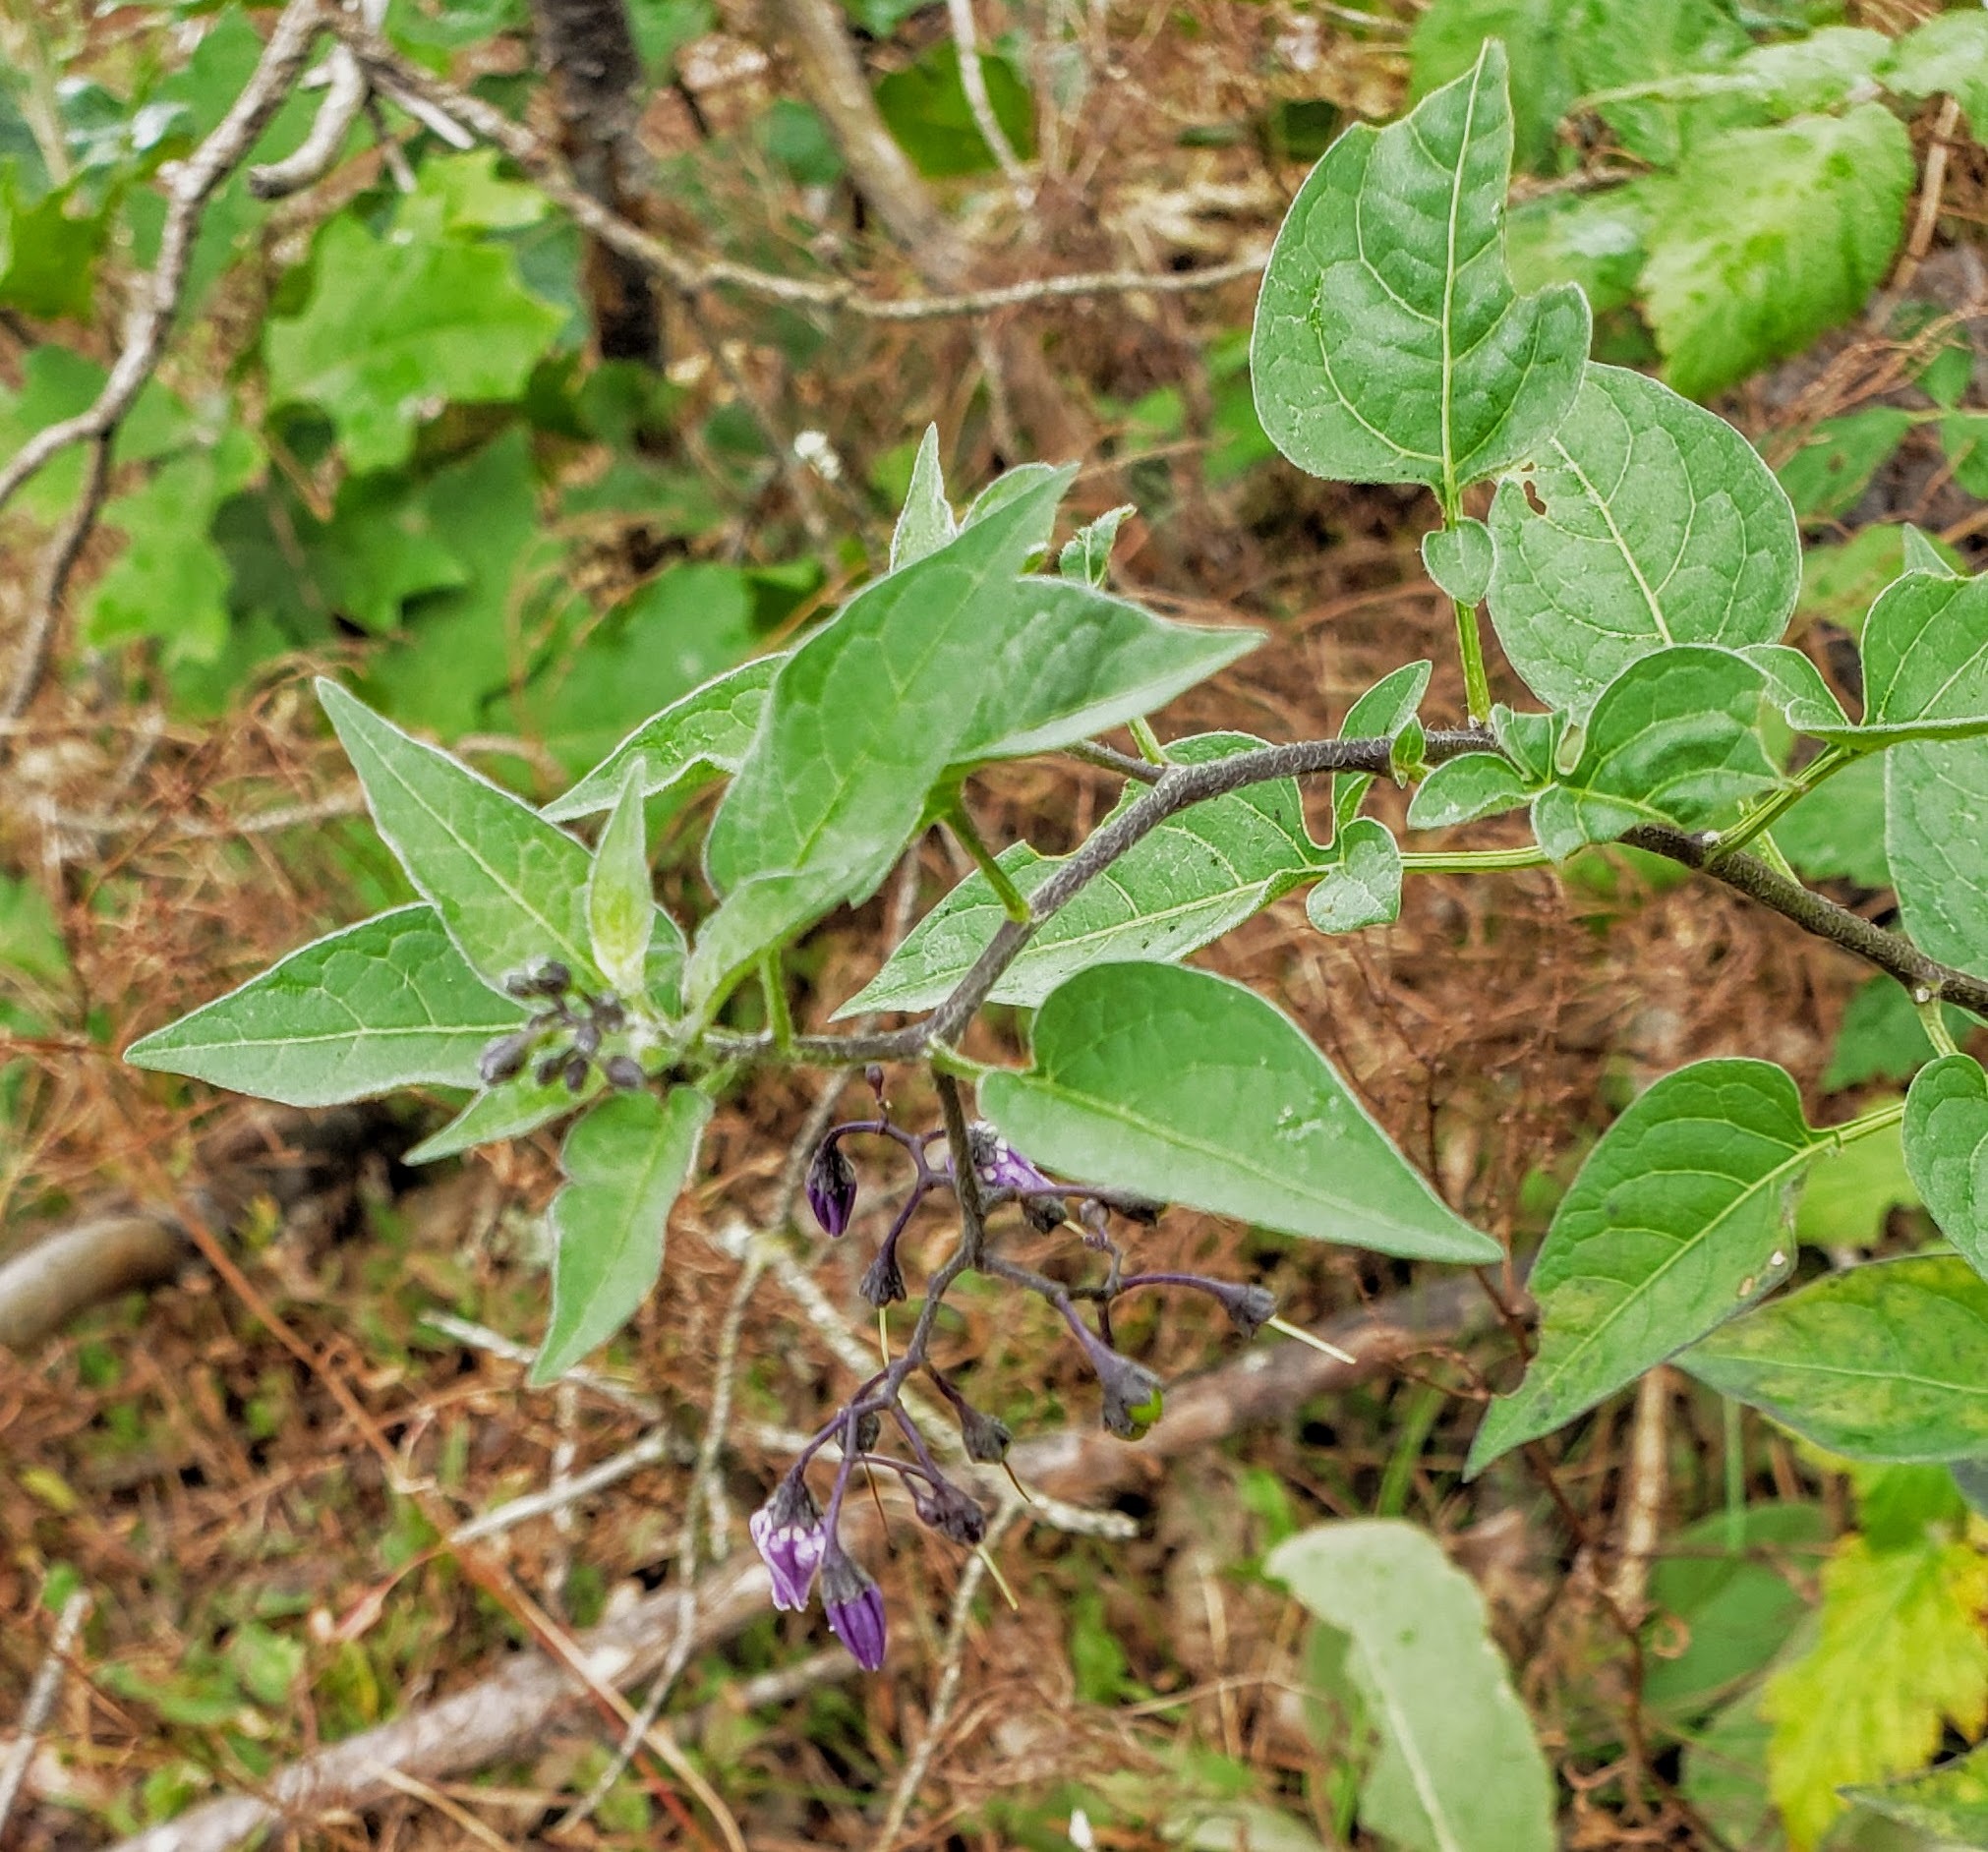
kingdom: Plantae
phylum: Tracheophyta
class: Magnoliopsida
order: Solanales
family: Solanaceae
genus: Solanum
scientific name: Solanum dulcamara
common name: Climbing nightshade
